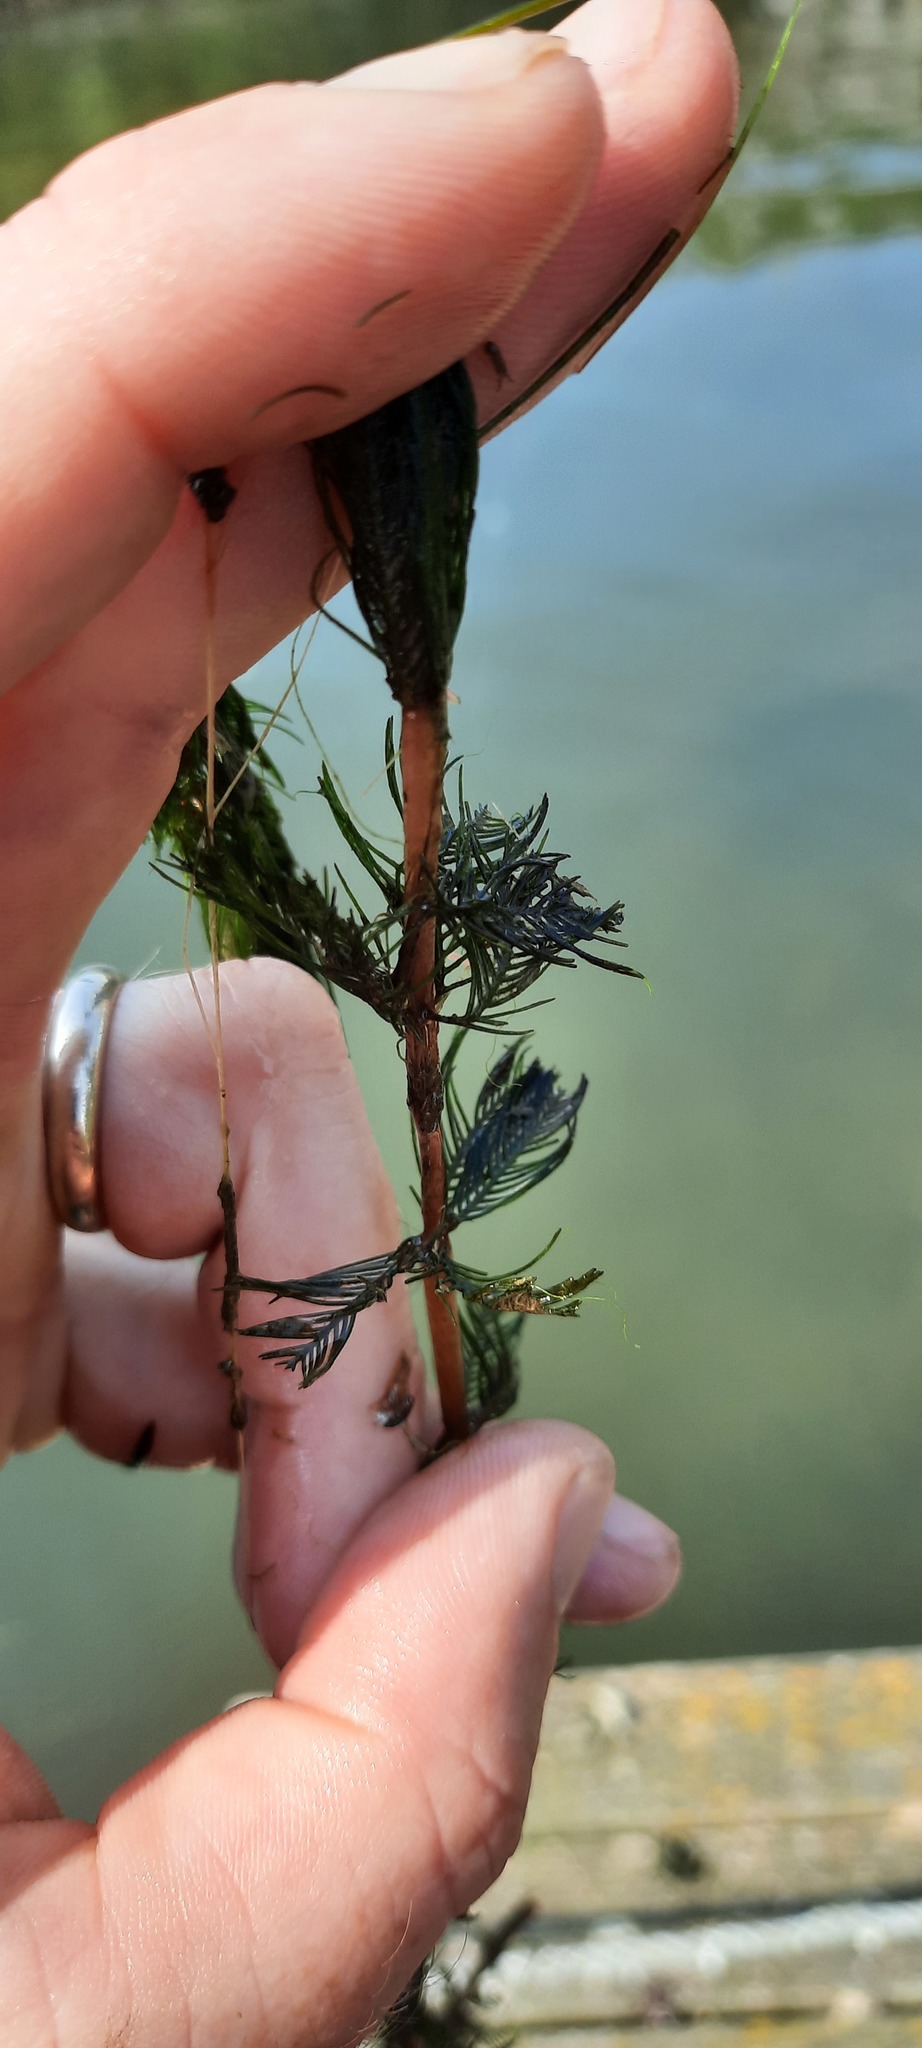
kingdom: Plantae
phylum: Tracheophyta
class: Magnoliopsida
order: Saxifragales
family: Haloragaceae
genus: Myriophyllum
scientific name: Myriophyllum spicatum
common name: Spiked water-milfoil
